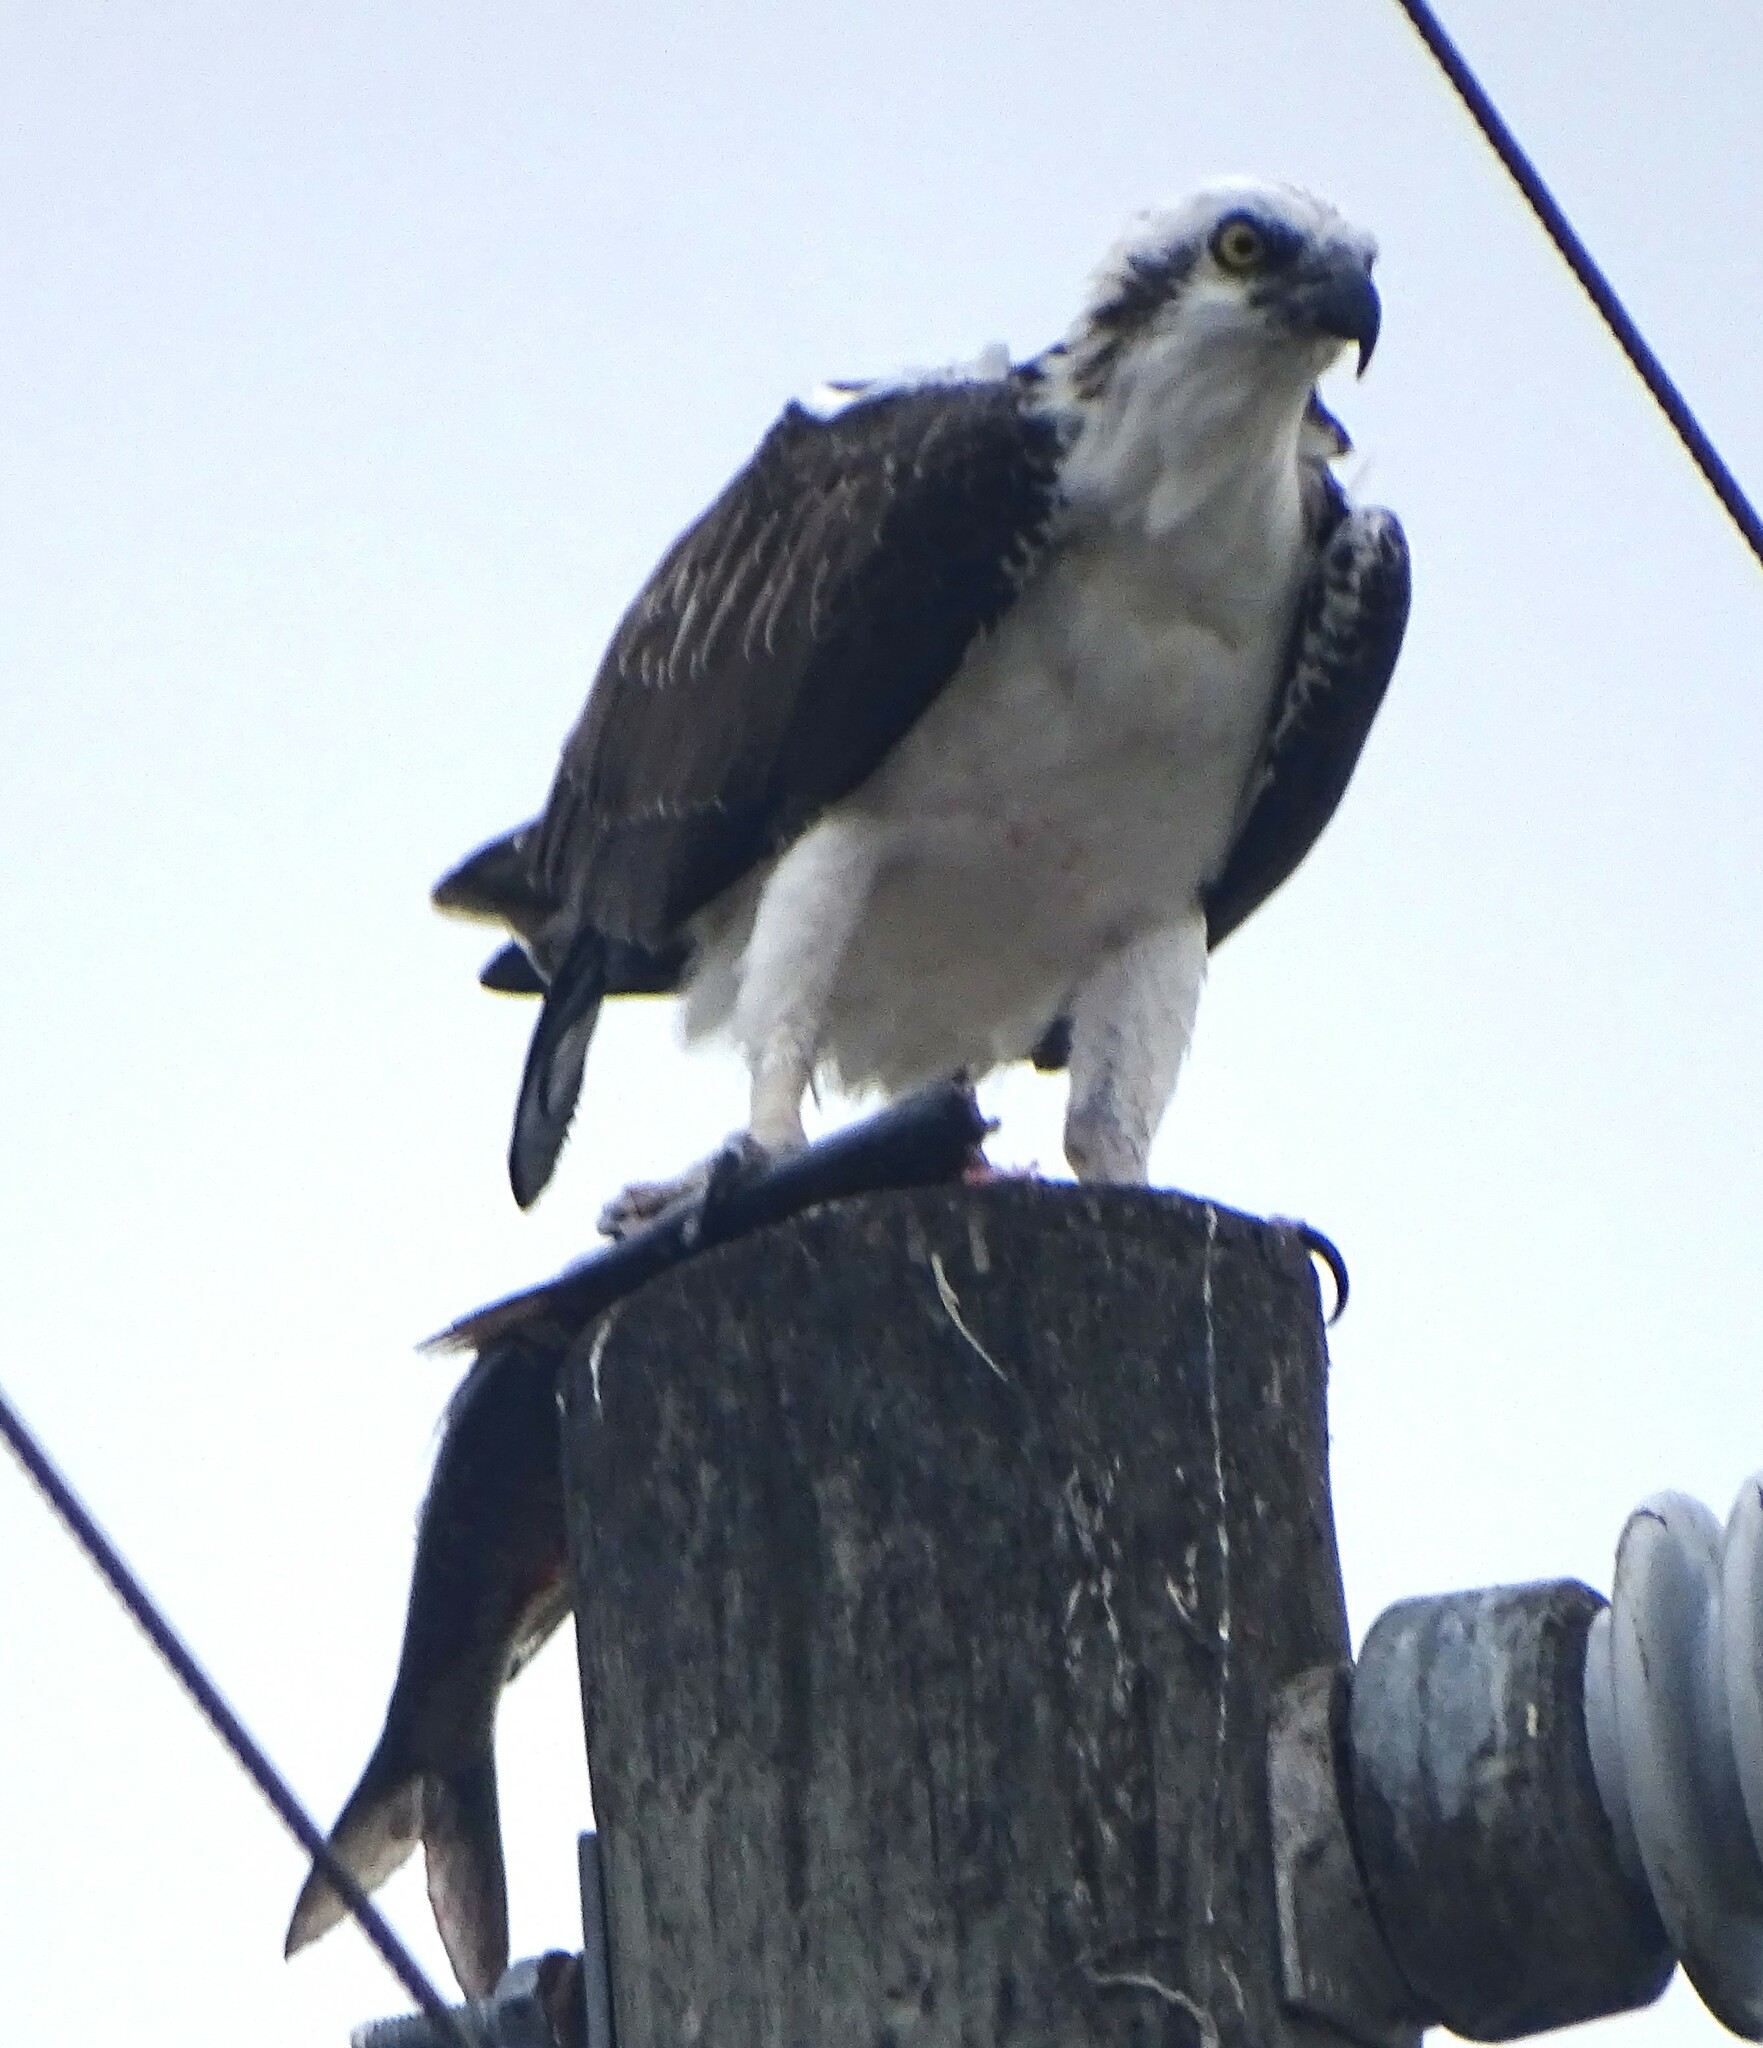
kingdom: Animalia
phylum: Chordata
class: Aves
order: Accipitriformes
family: Pandionidae
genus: Pandion
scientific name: Pandion haliaetus
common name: Osprey
